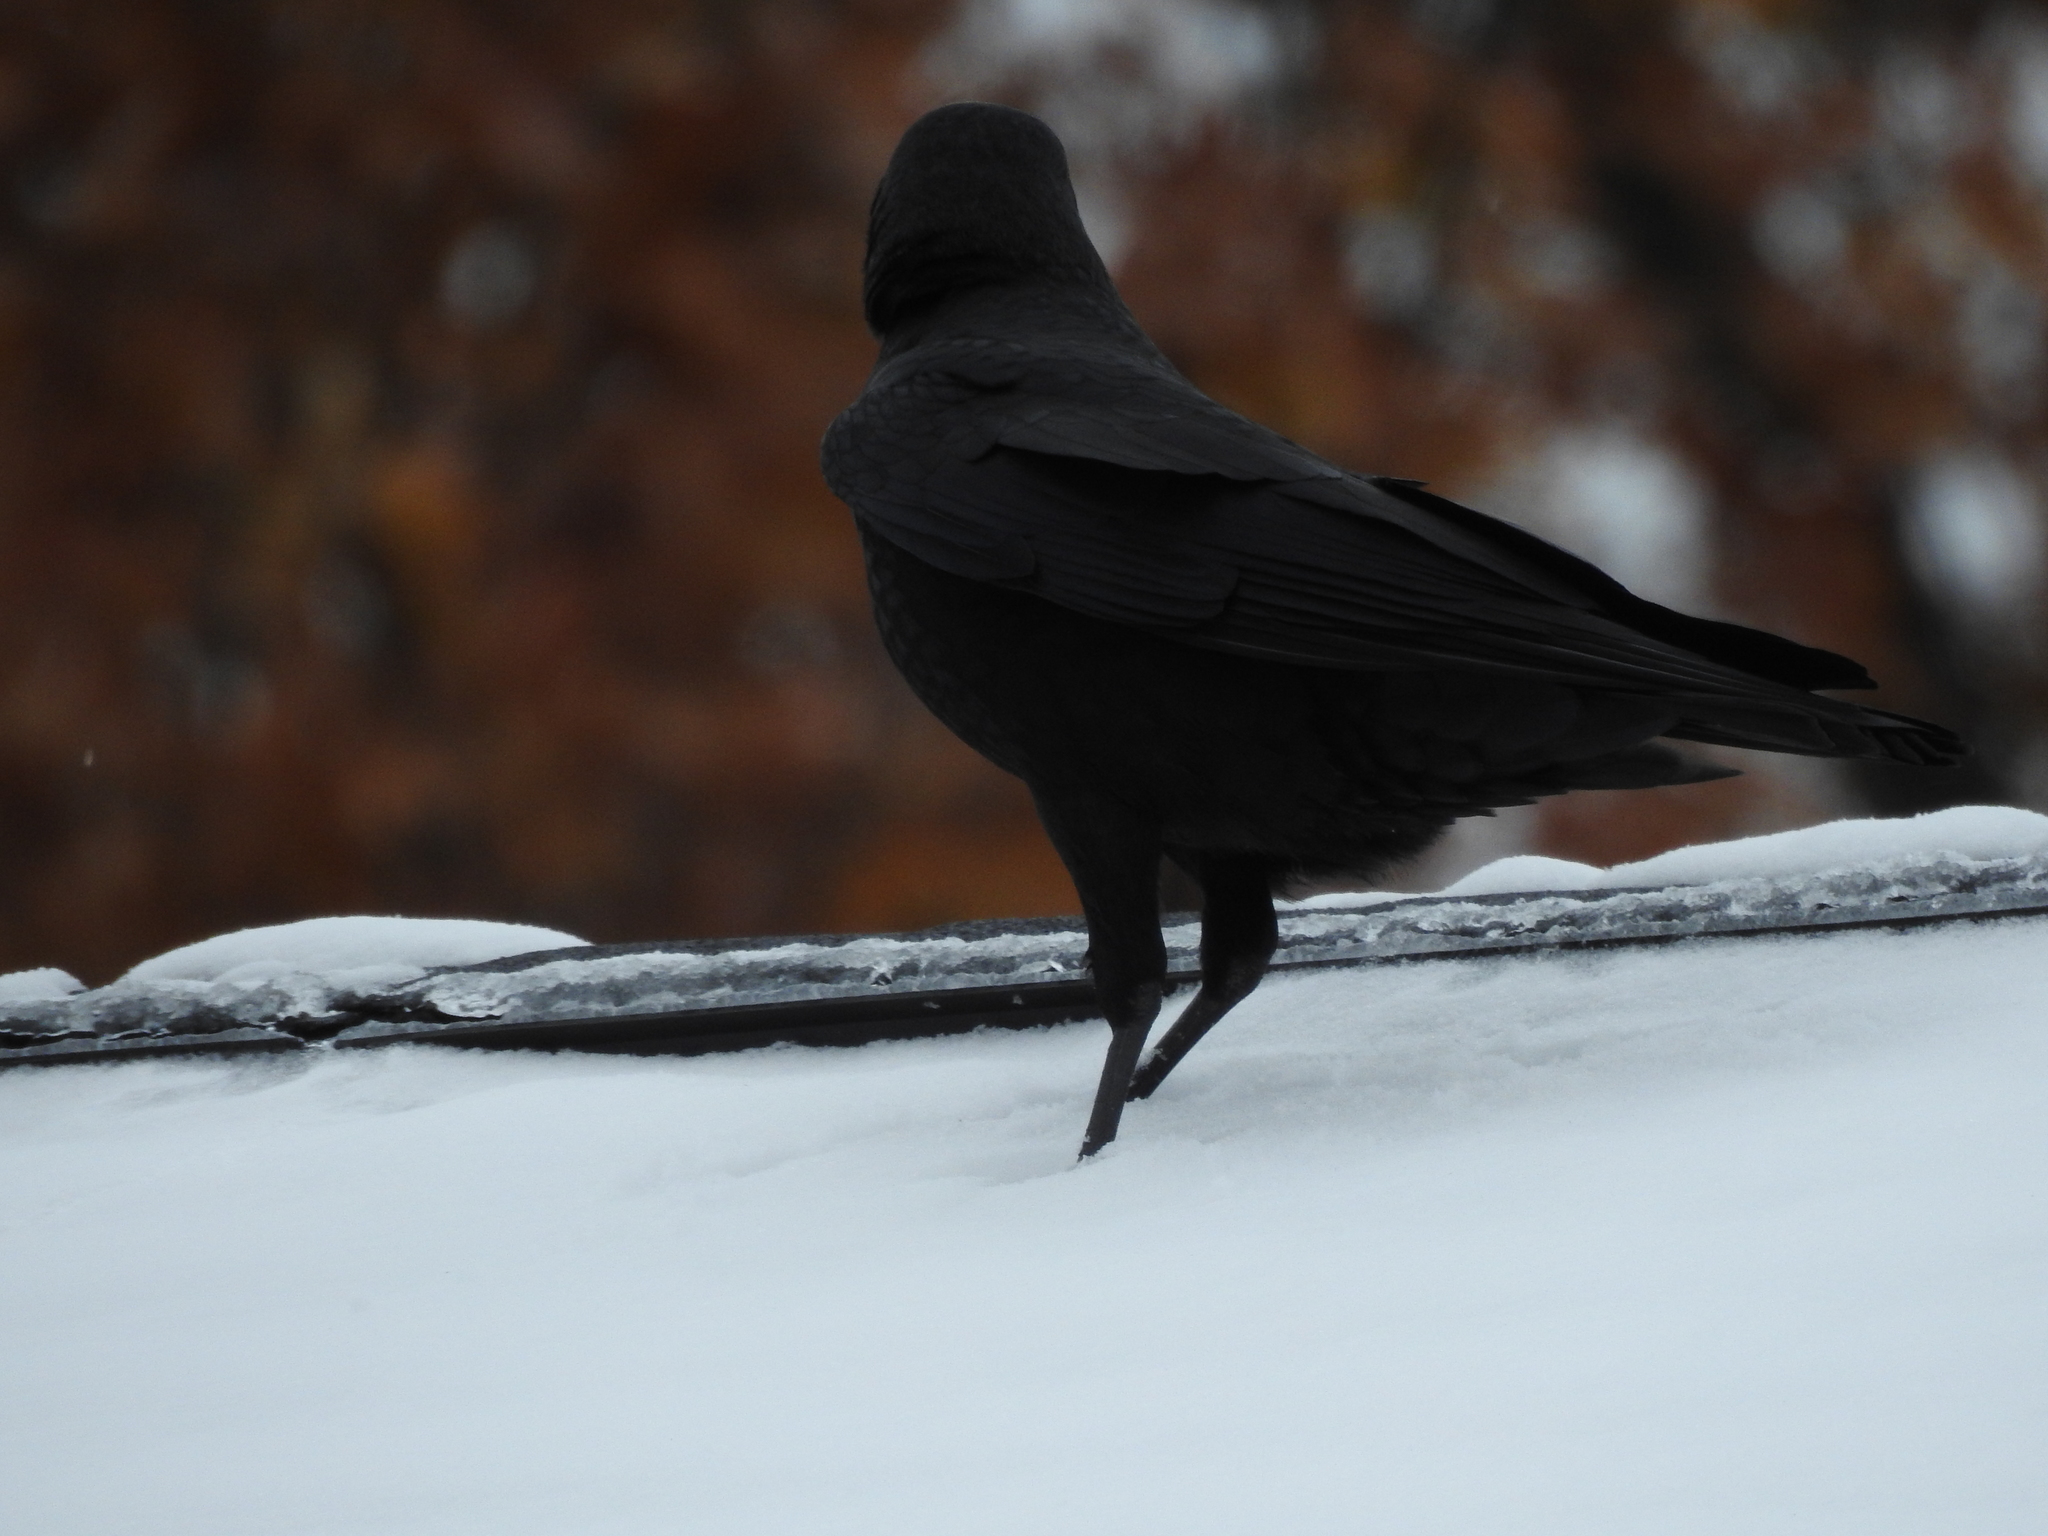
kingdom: Animalia
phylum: Chordata
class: Aves
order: Passeriformes
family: Corvidae
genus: Corvus
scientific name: Corvus brachyrhynchos
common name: American crow
